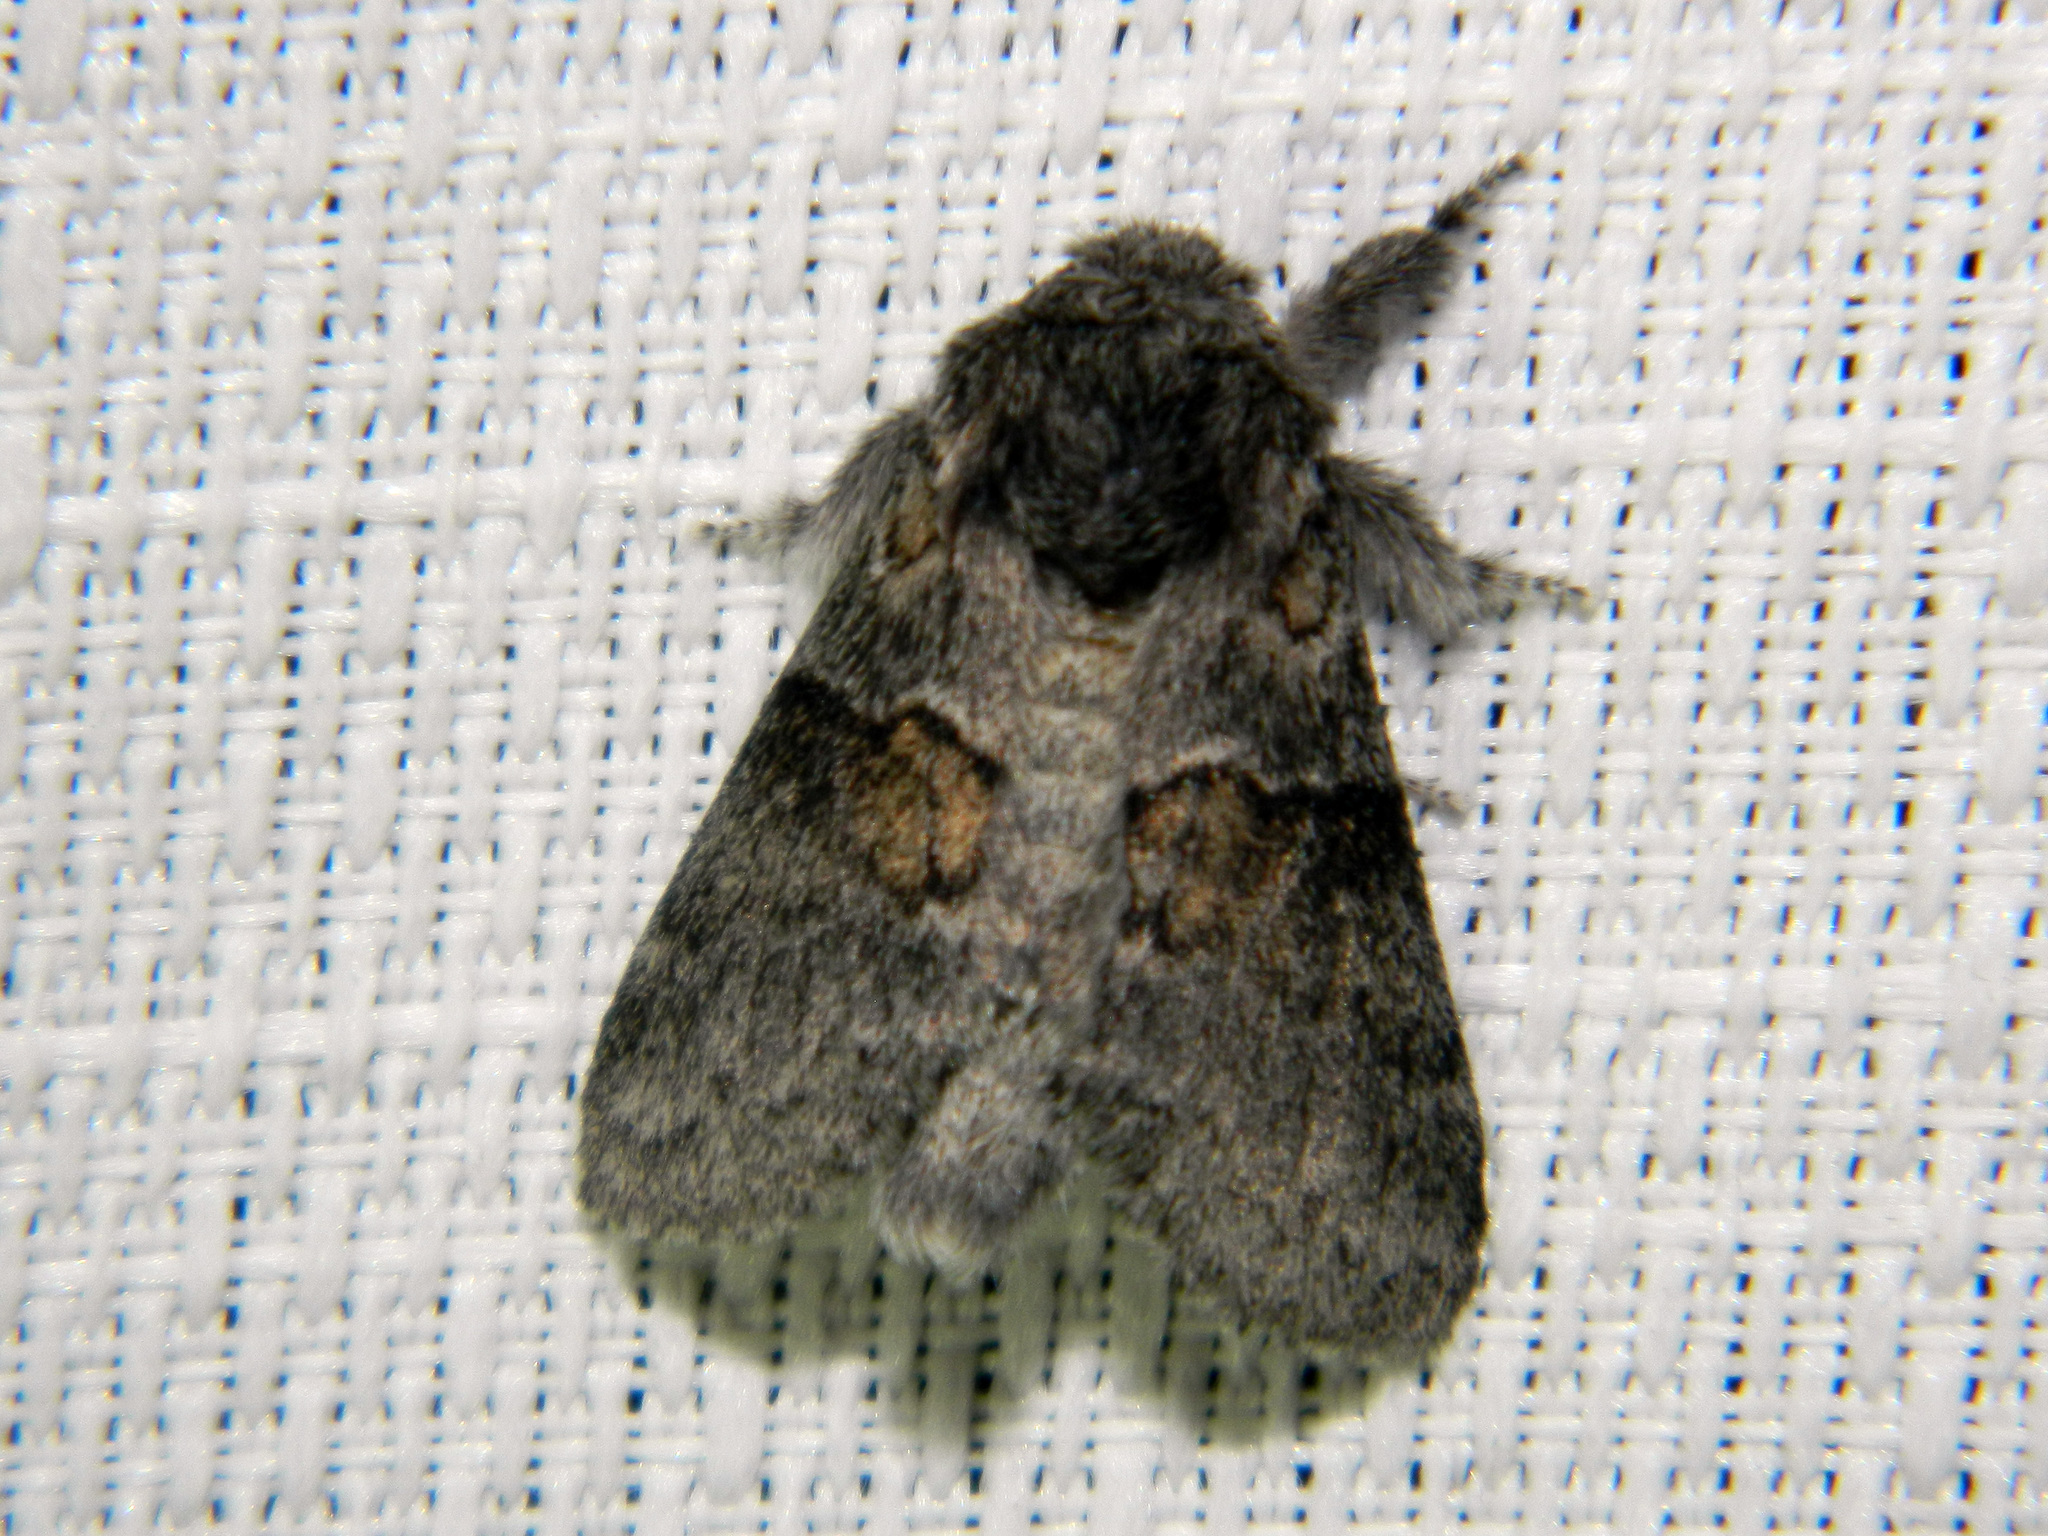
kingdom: Animalia
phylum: Arthropoda
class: Insecta
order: Lepidoptera
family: Notodontidae
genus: Gluphisia
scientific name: Gluphisia septentrionis
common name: Common gluphisia
